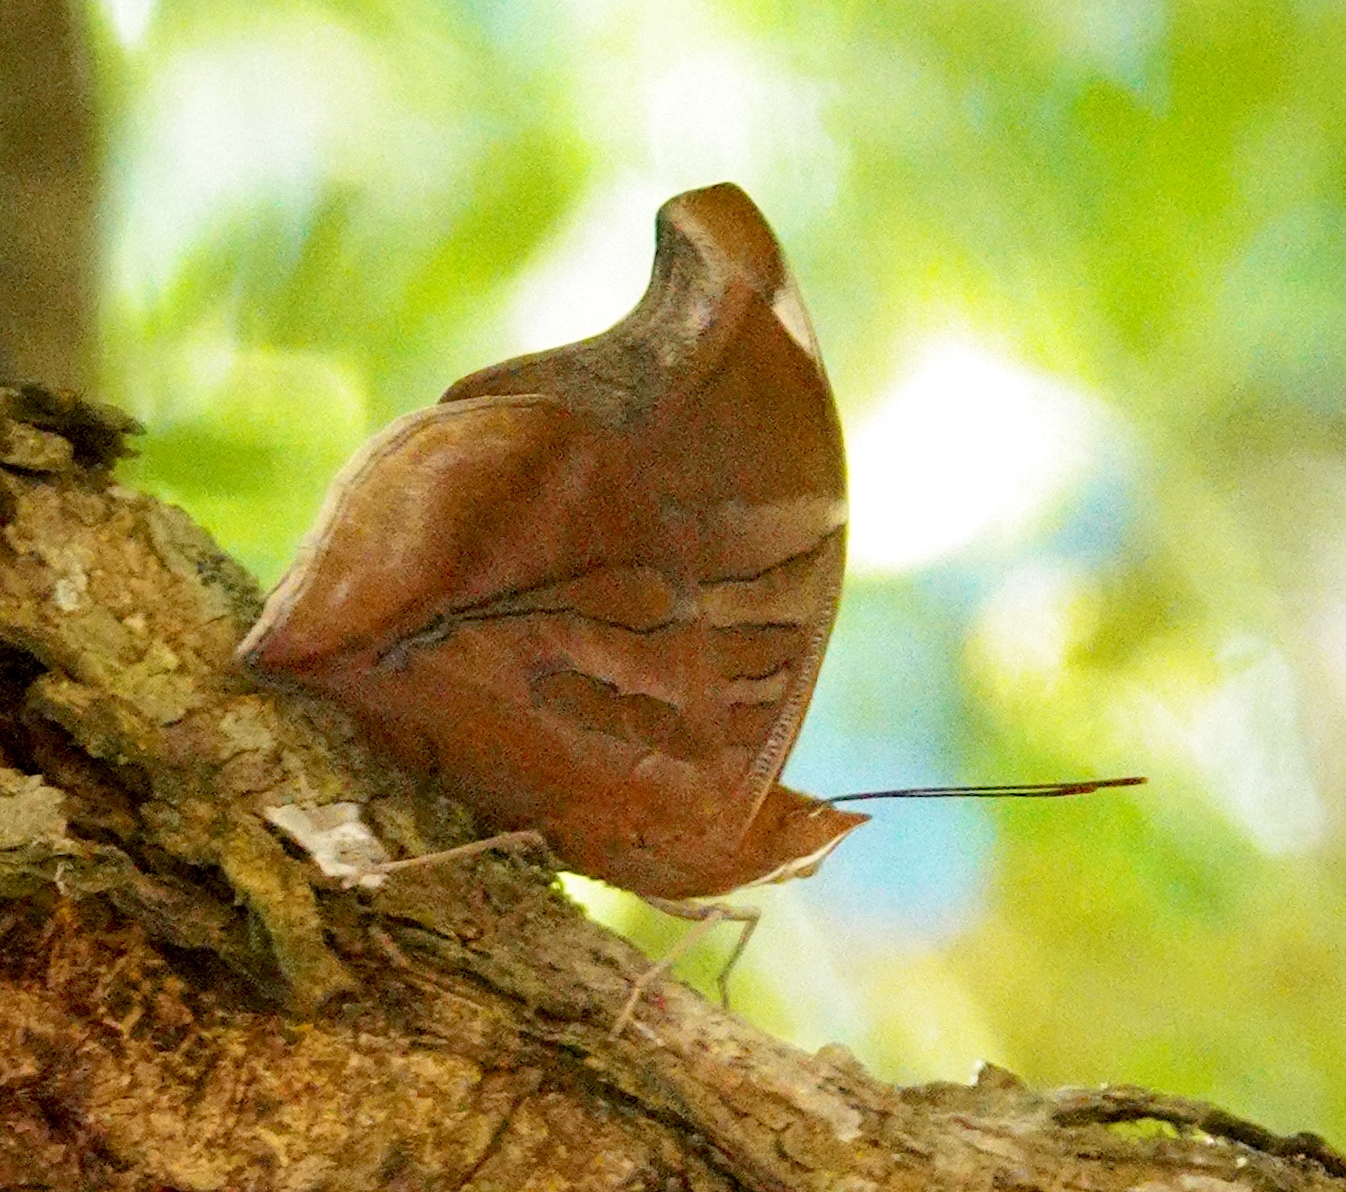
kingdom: Animalia
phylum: Arthropoda
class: Insecta
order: Lepidoptera
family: Nymphalidae
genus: Historis
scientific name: Historis odius
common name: Orion cecropian
